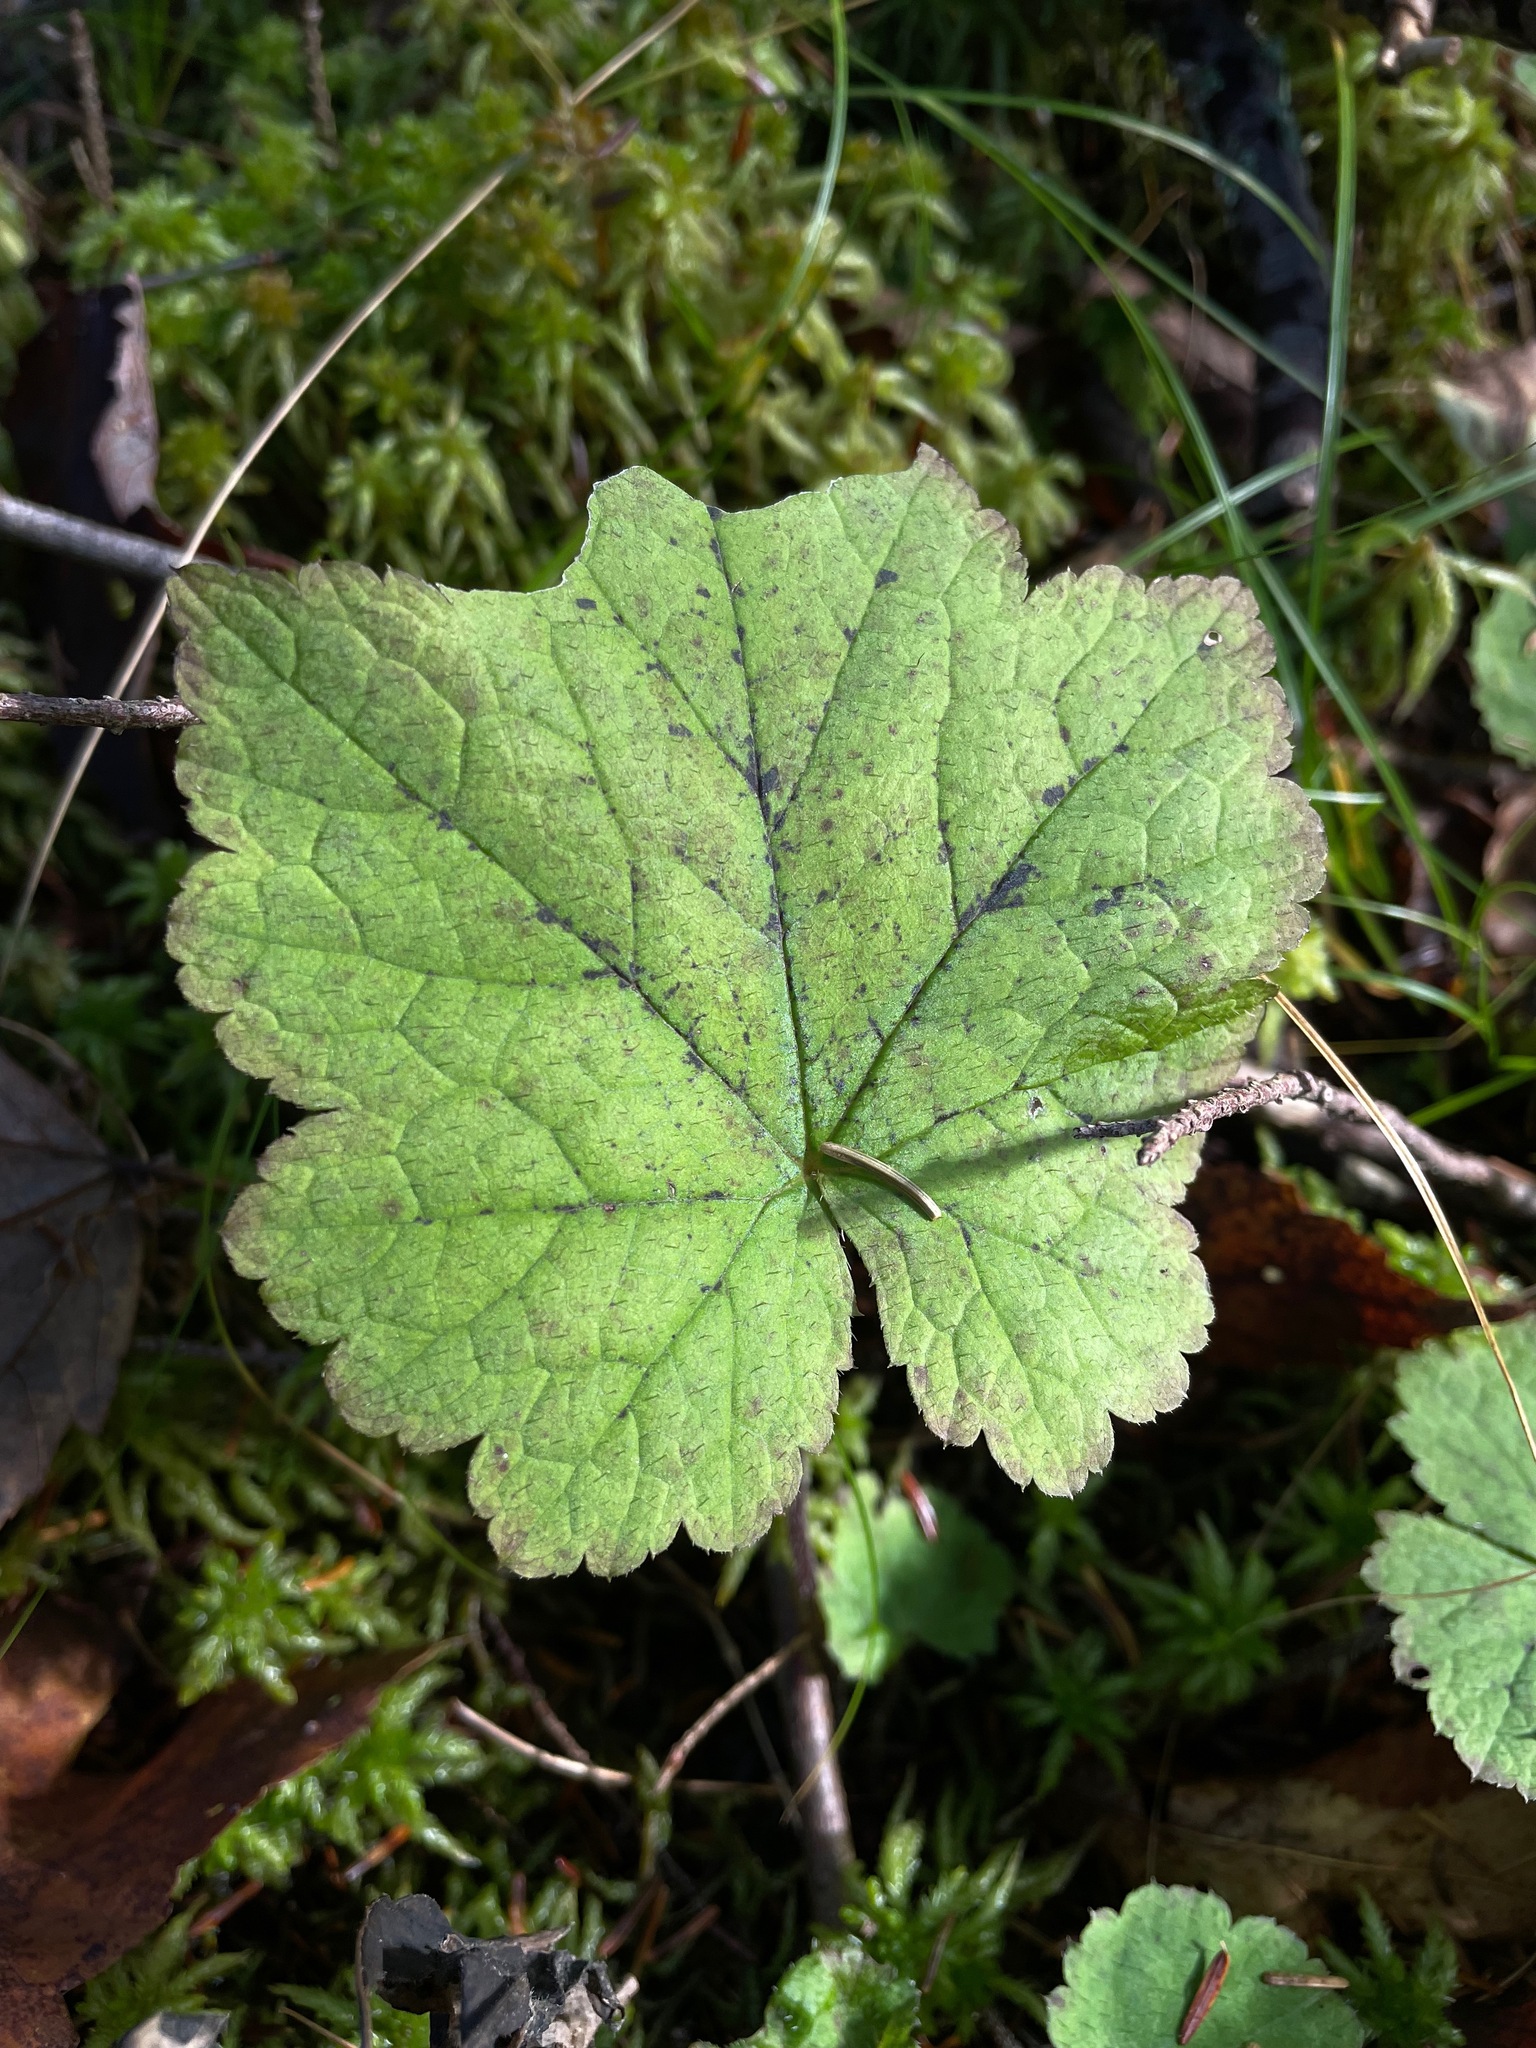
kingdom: Plantae
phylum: Tracheophyta
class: Magnoliopsida
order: Saxifragales
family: Saxifragaceae
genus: Tiarella
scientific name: Tiarella stolonifera
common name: Stoloniferous foamflower
